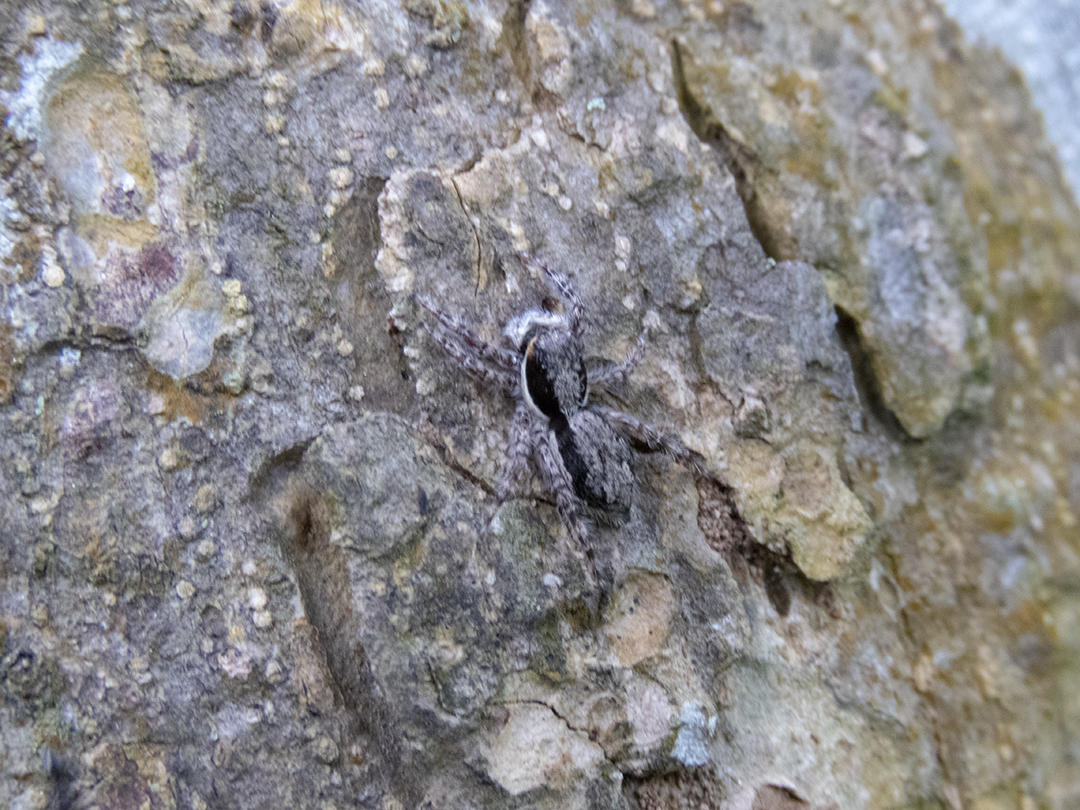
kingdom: Animalia
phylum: Arthropoda
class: Arachnida
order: Araneae
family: Salticidae
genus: Menemerus
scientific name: Menemerus bivittatus
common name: Gray wall jumper
